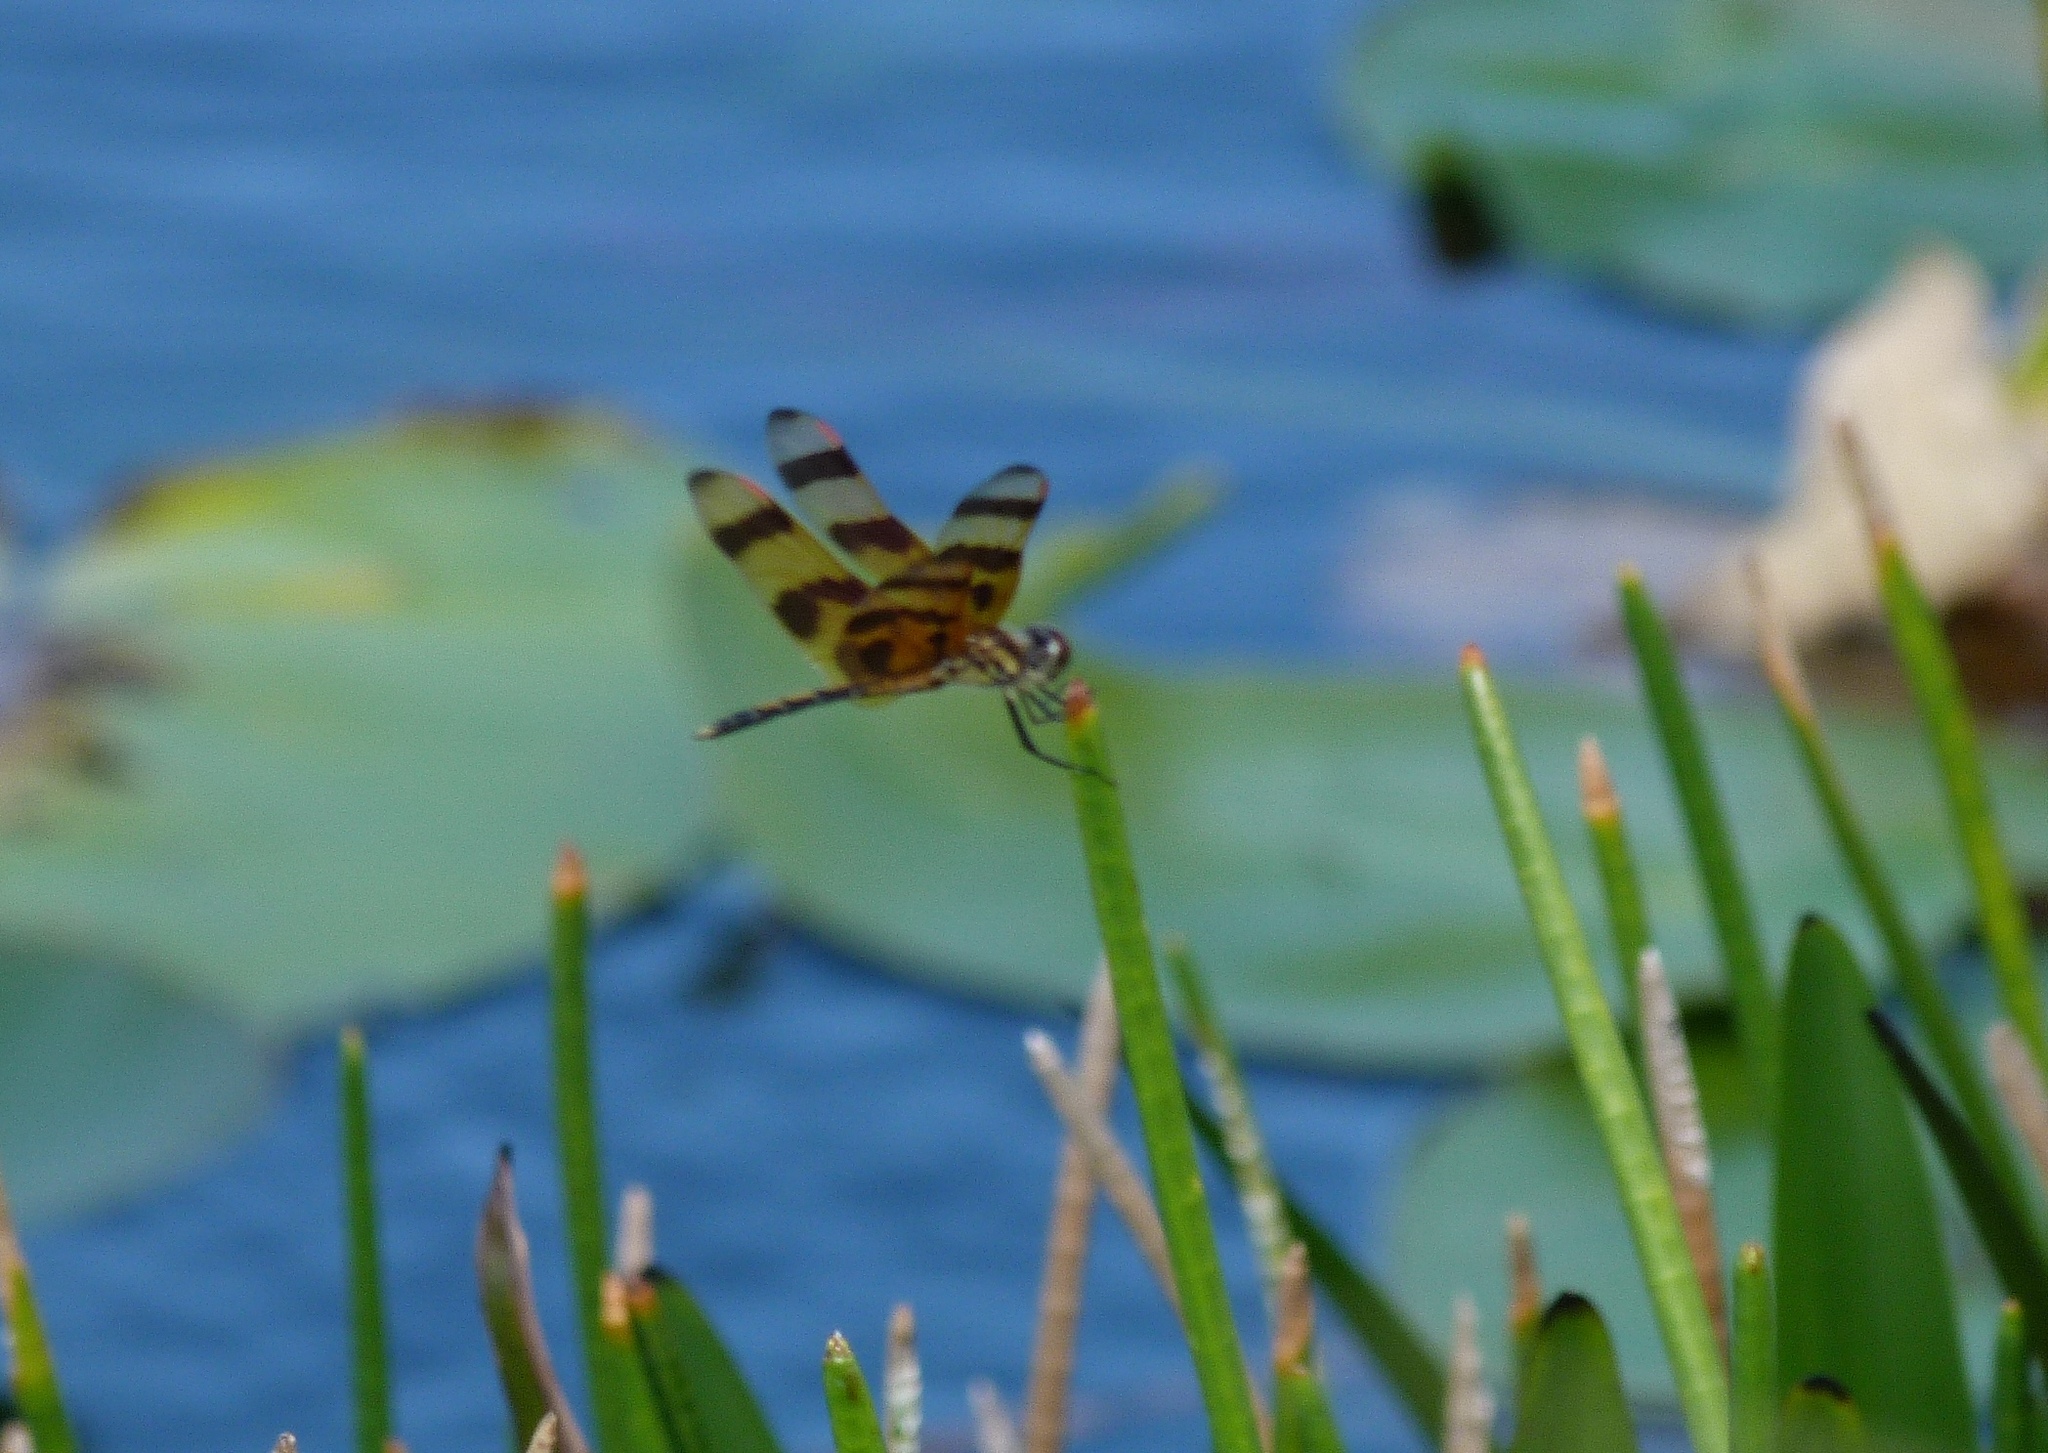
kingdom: Animalia
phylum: Arthropoda
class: Insecta
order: Odonata
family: Libellulidae
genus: Celithemis
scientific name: Celithemis eponina
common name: Halloween pennant
